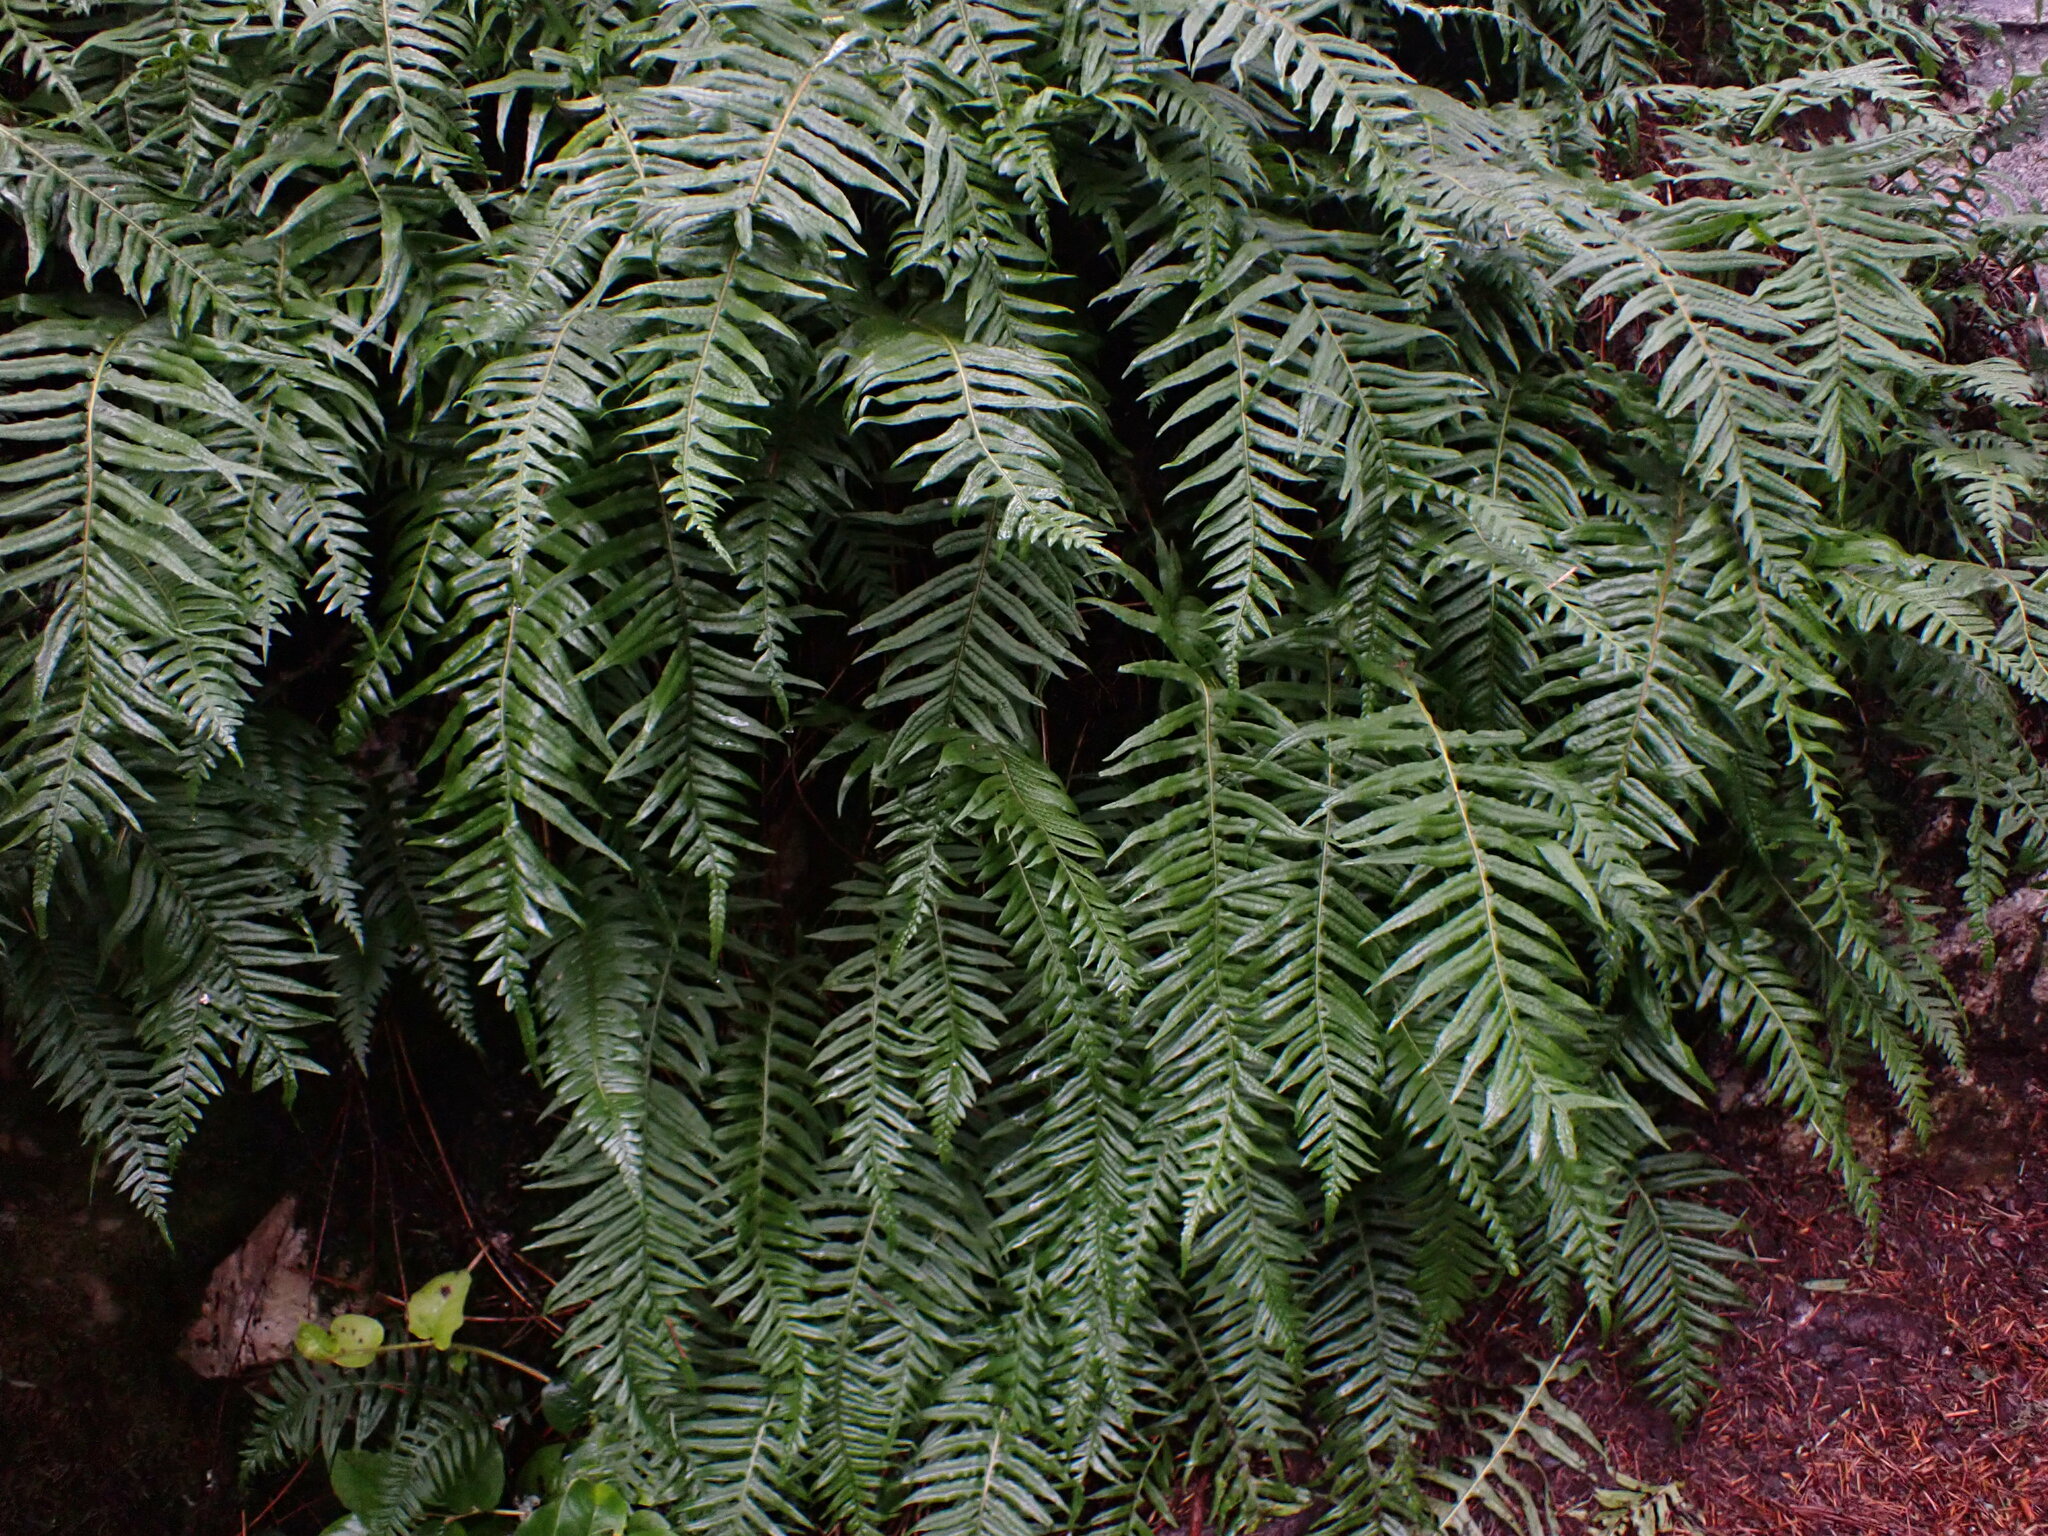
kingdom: Plantae
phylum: Tracheophyta
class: Polypodiopsida
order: Polypodiales
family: Polypodiaceae
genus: Polypodium
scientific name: Polypodium glycyrrhiza
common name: Licorice fern
